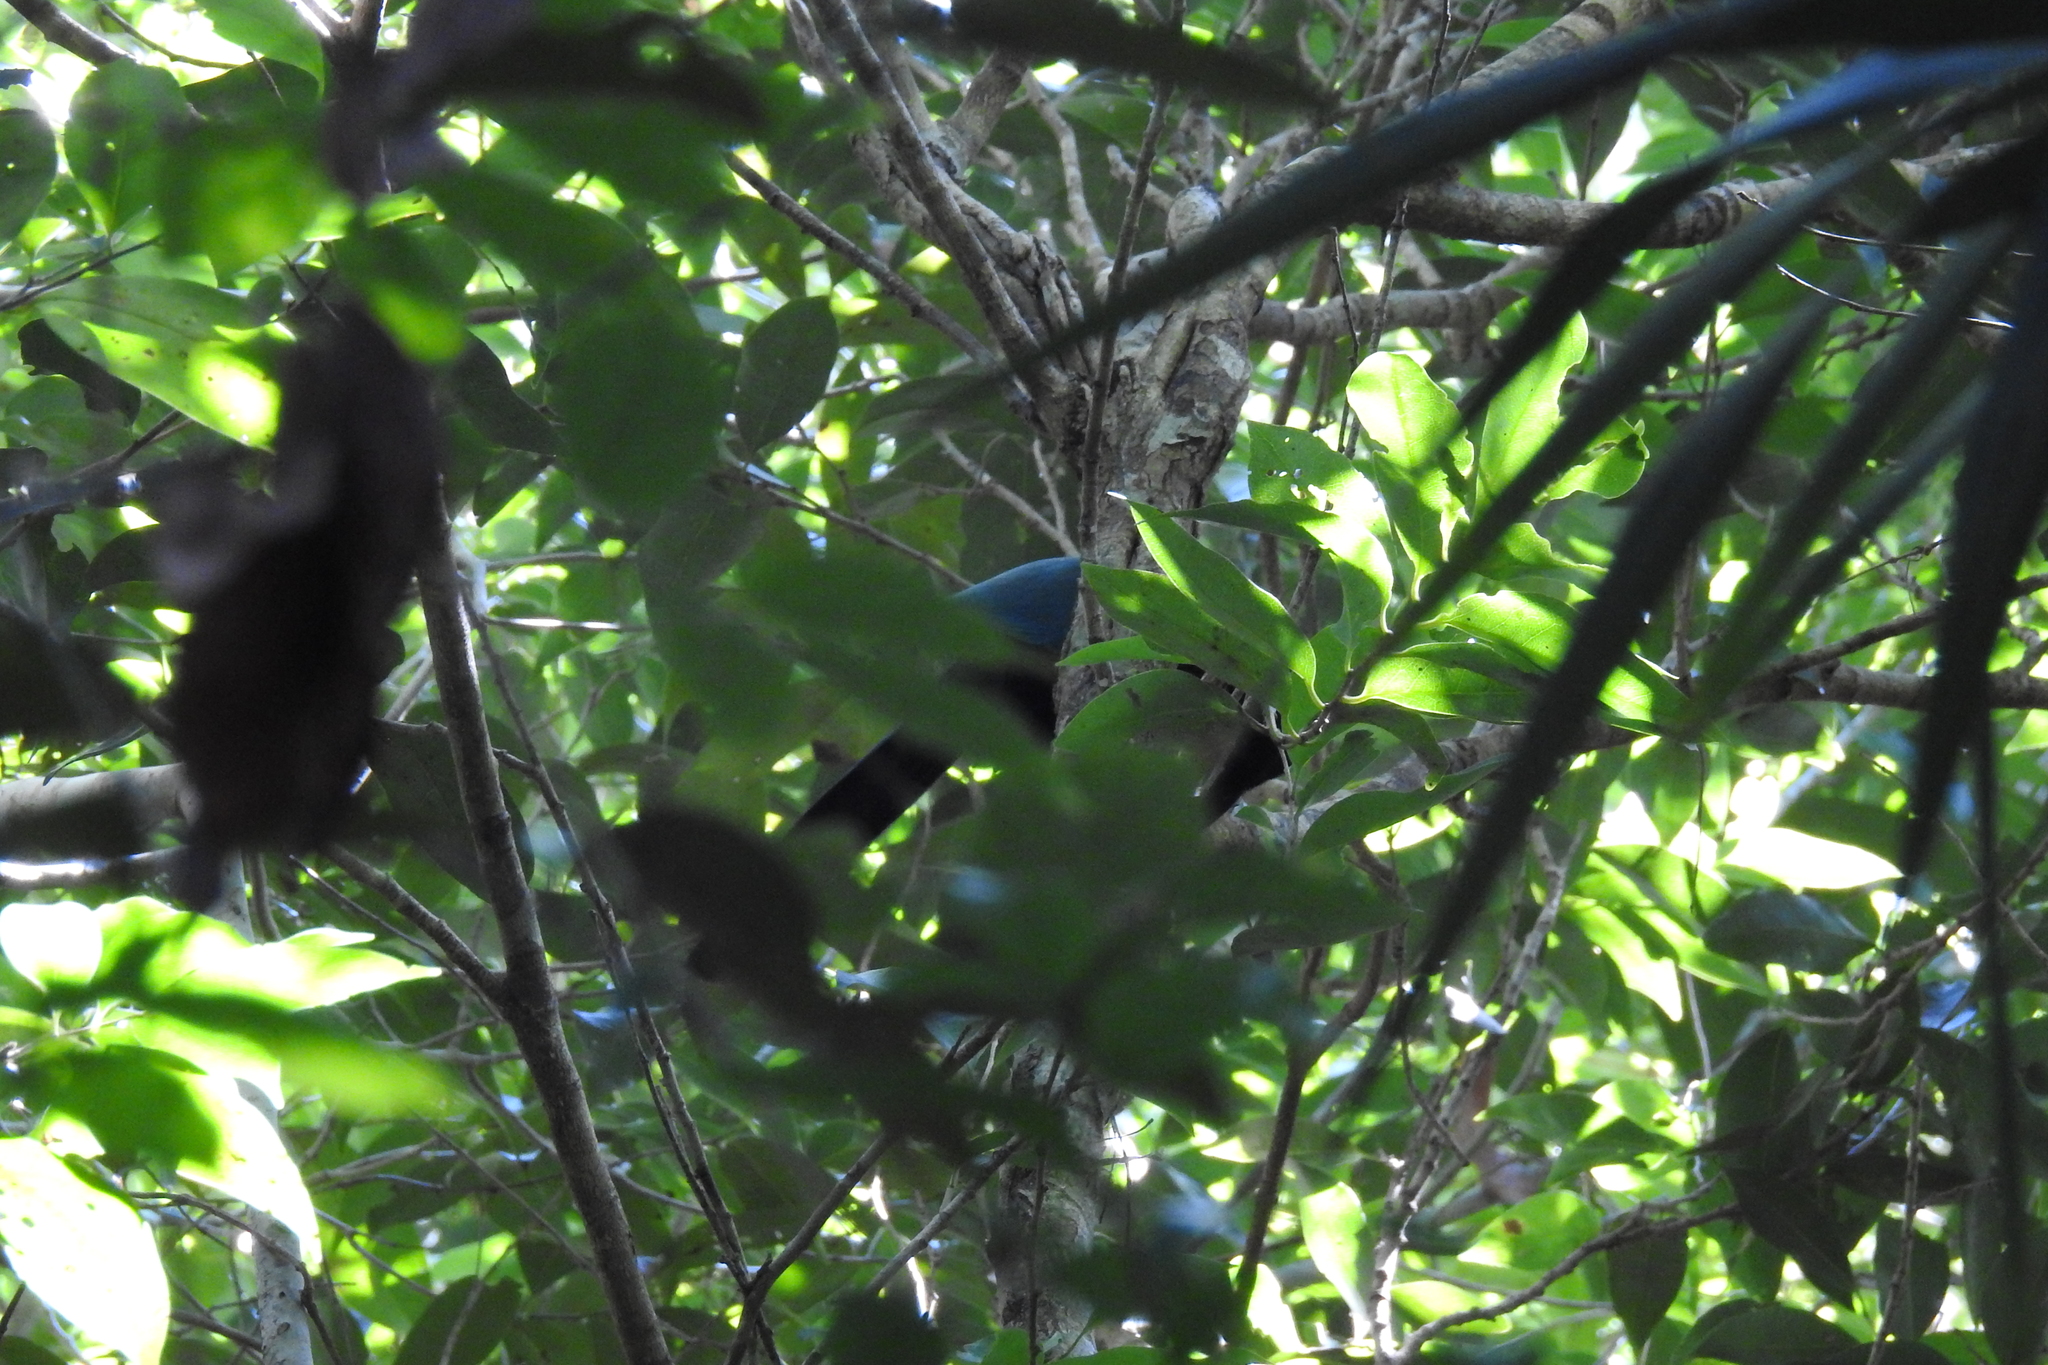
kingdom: Animalia
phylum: Chordata
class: Aves
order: Passeriformes
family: Corvidae
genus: Cyanocorax
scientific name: Cyanocorax yucatanicus
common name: Yucatan jay
